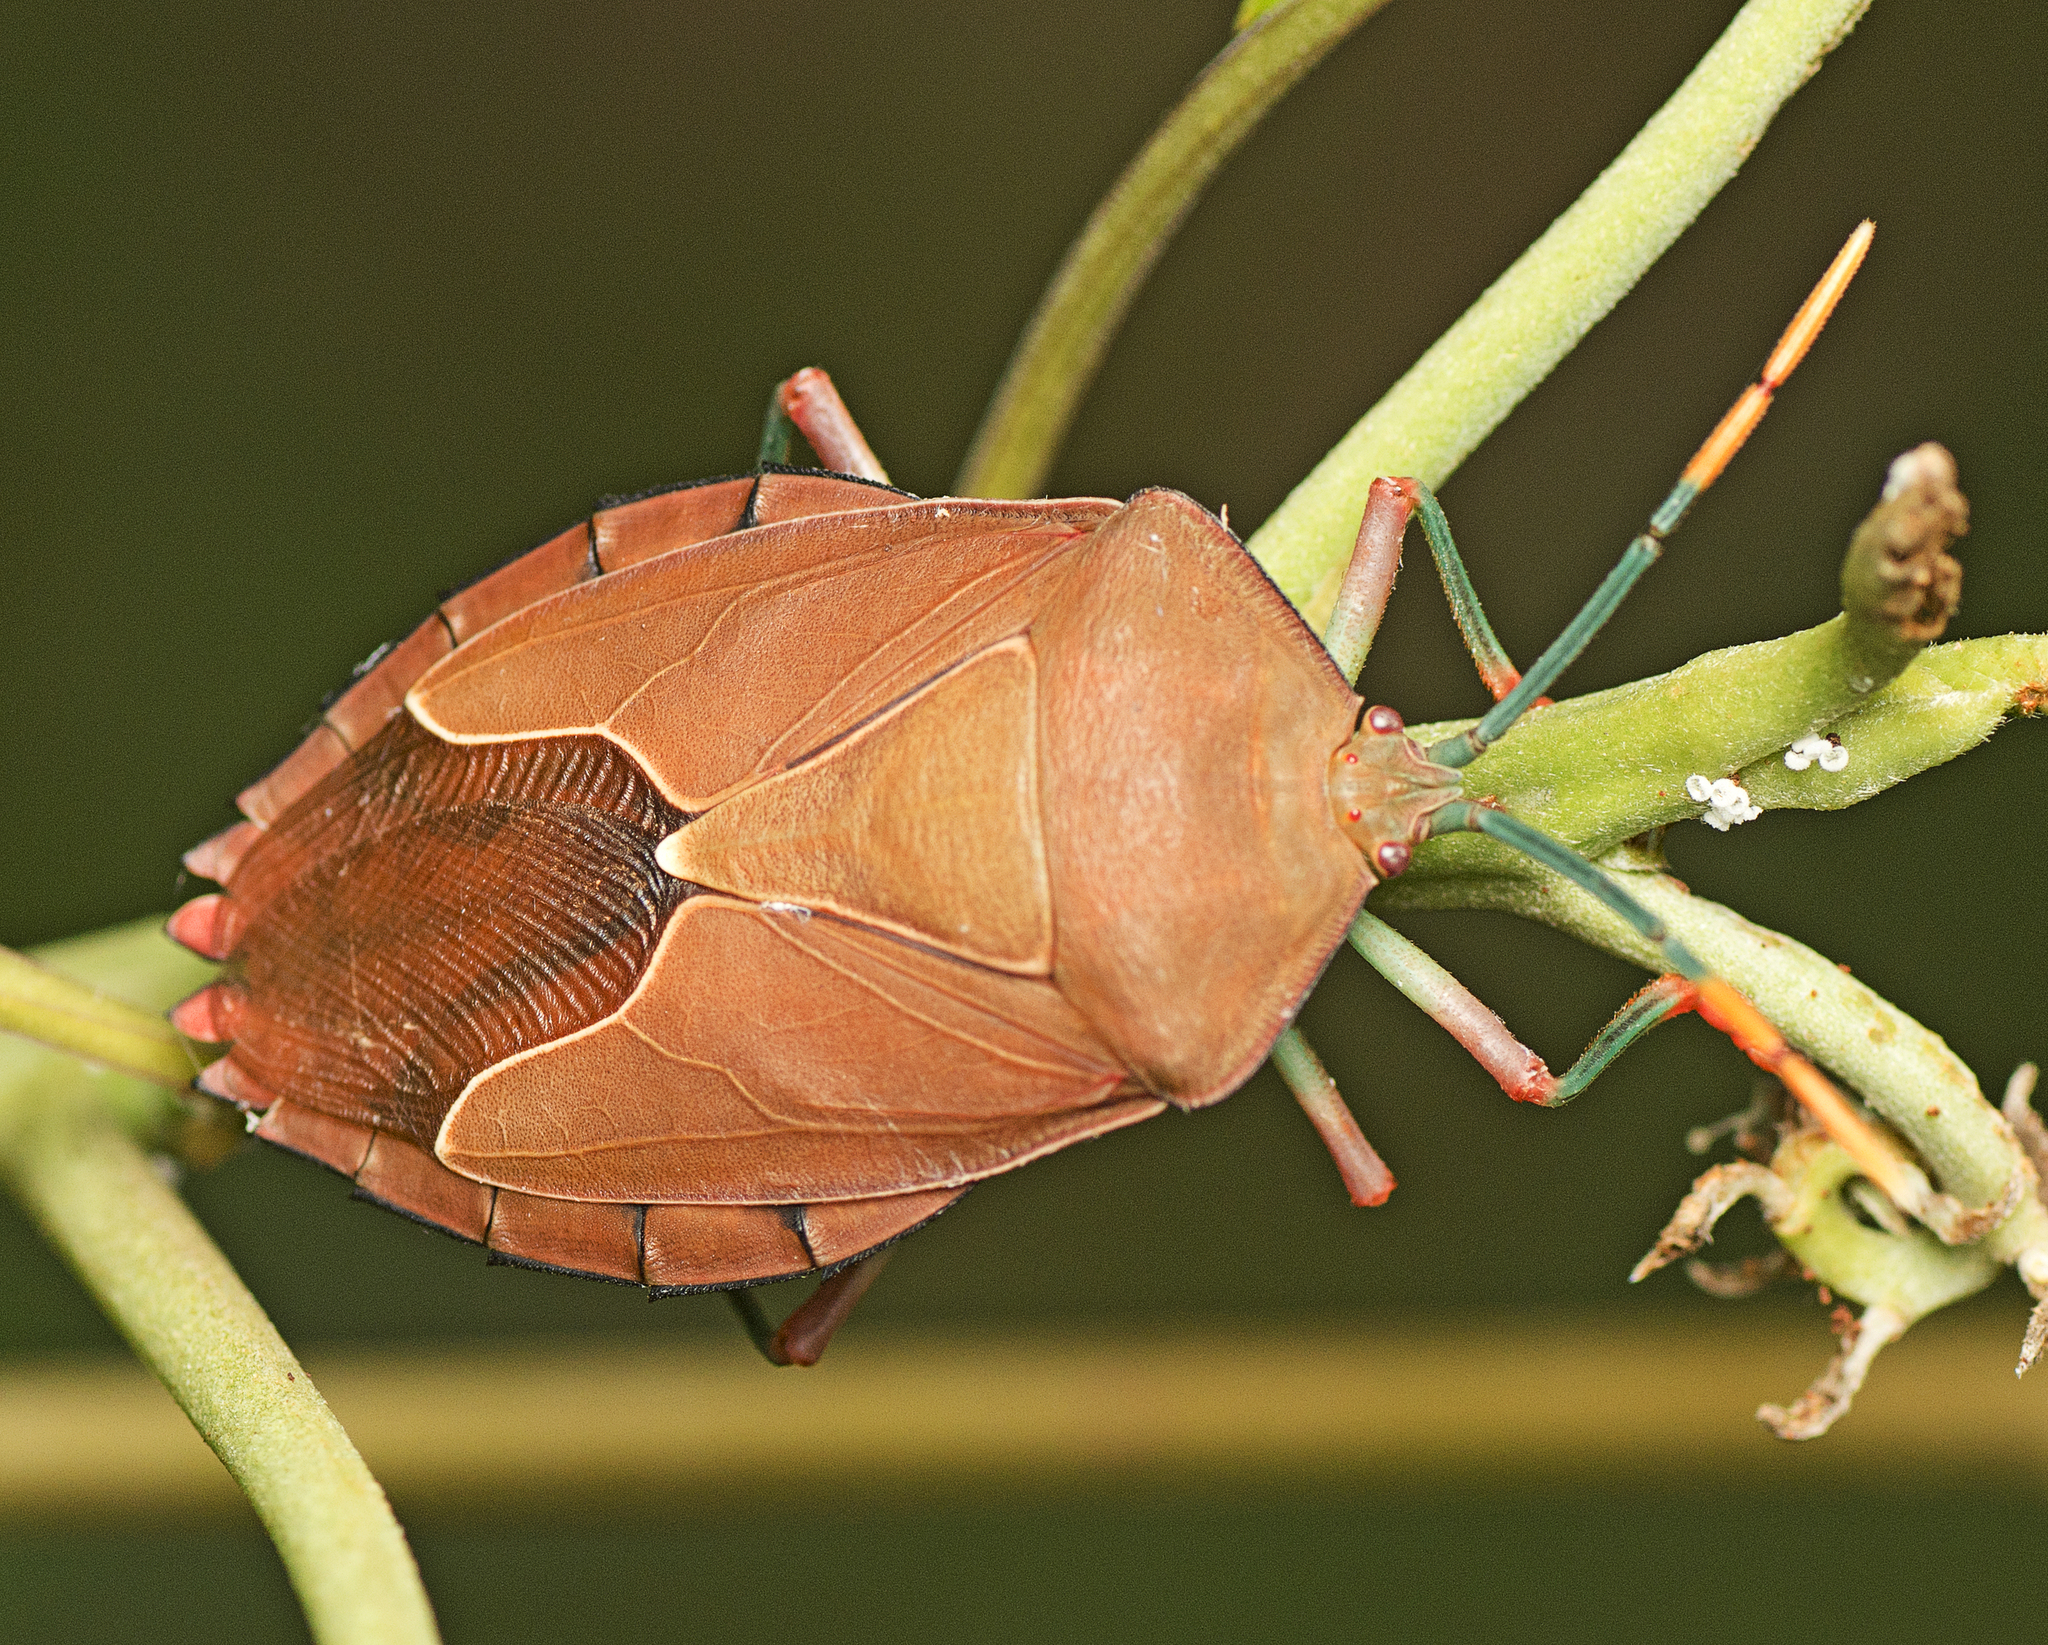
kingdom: Animalia
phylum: Arthropoda
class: Insecta
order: Hemiptera
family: Tessaratomidae
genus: Stilida
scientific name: Stilida indecora
